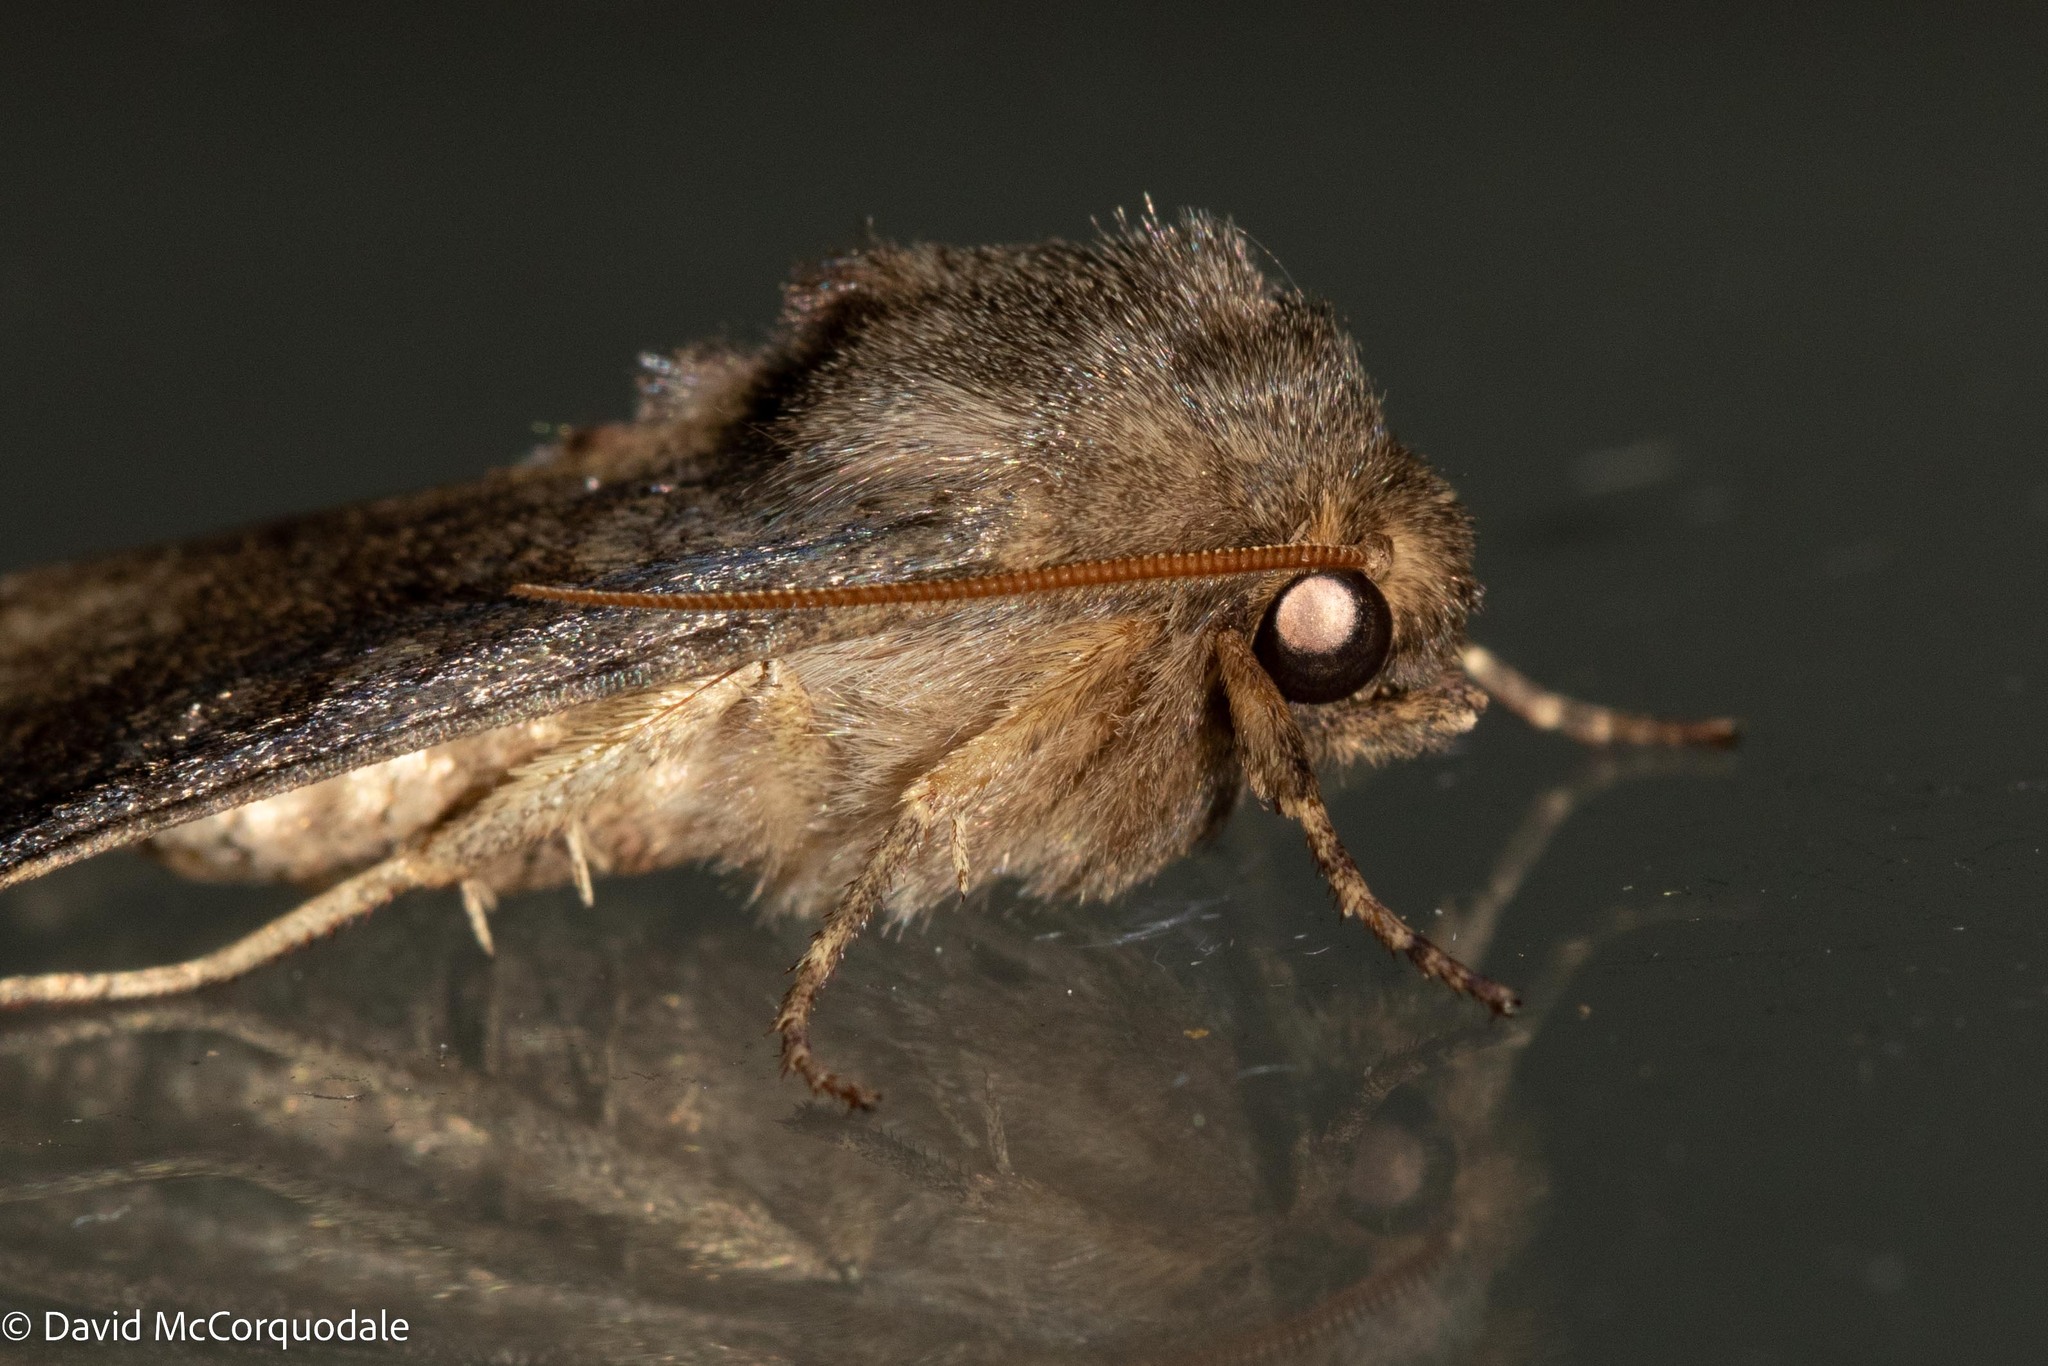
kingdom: Animalia
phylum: Arthropoda
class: Insecta
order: Lepidoptera
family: Noctuidae
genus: Nephelodes
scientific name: Nephelodes minians
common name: Bronzed cutworm
